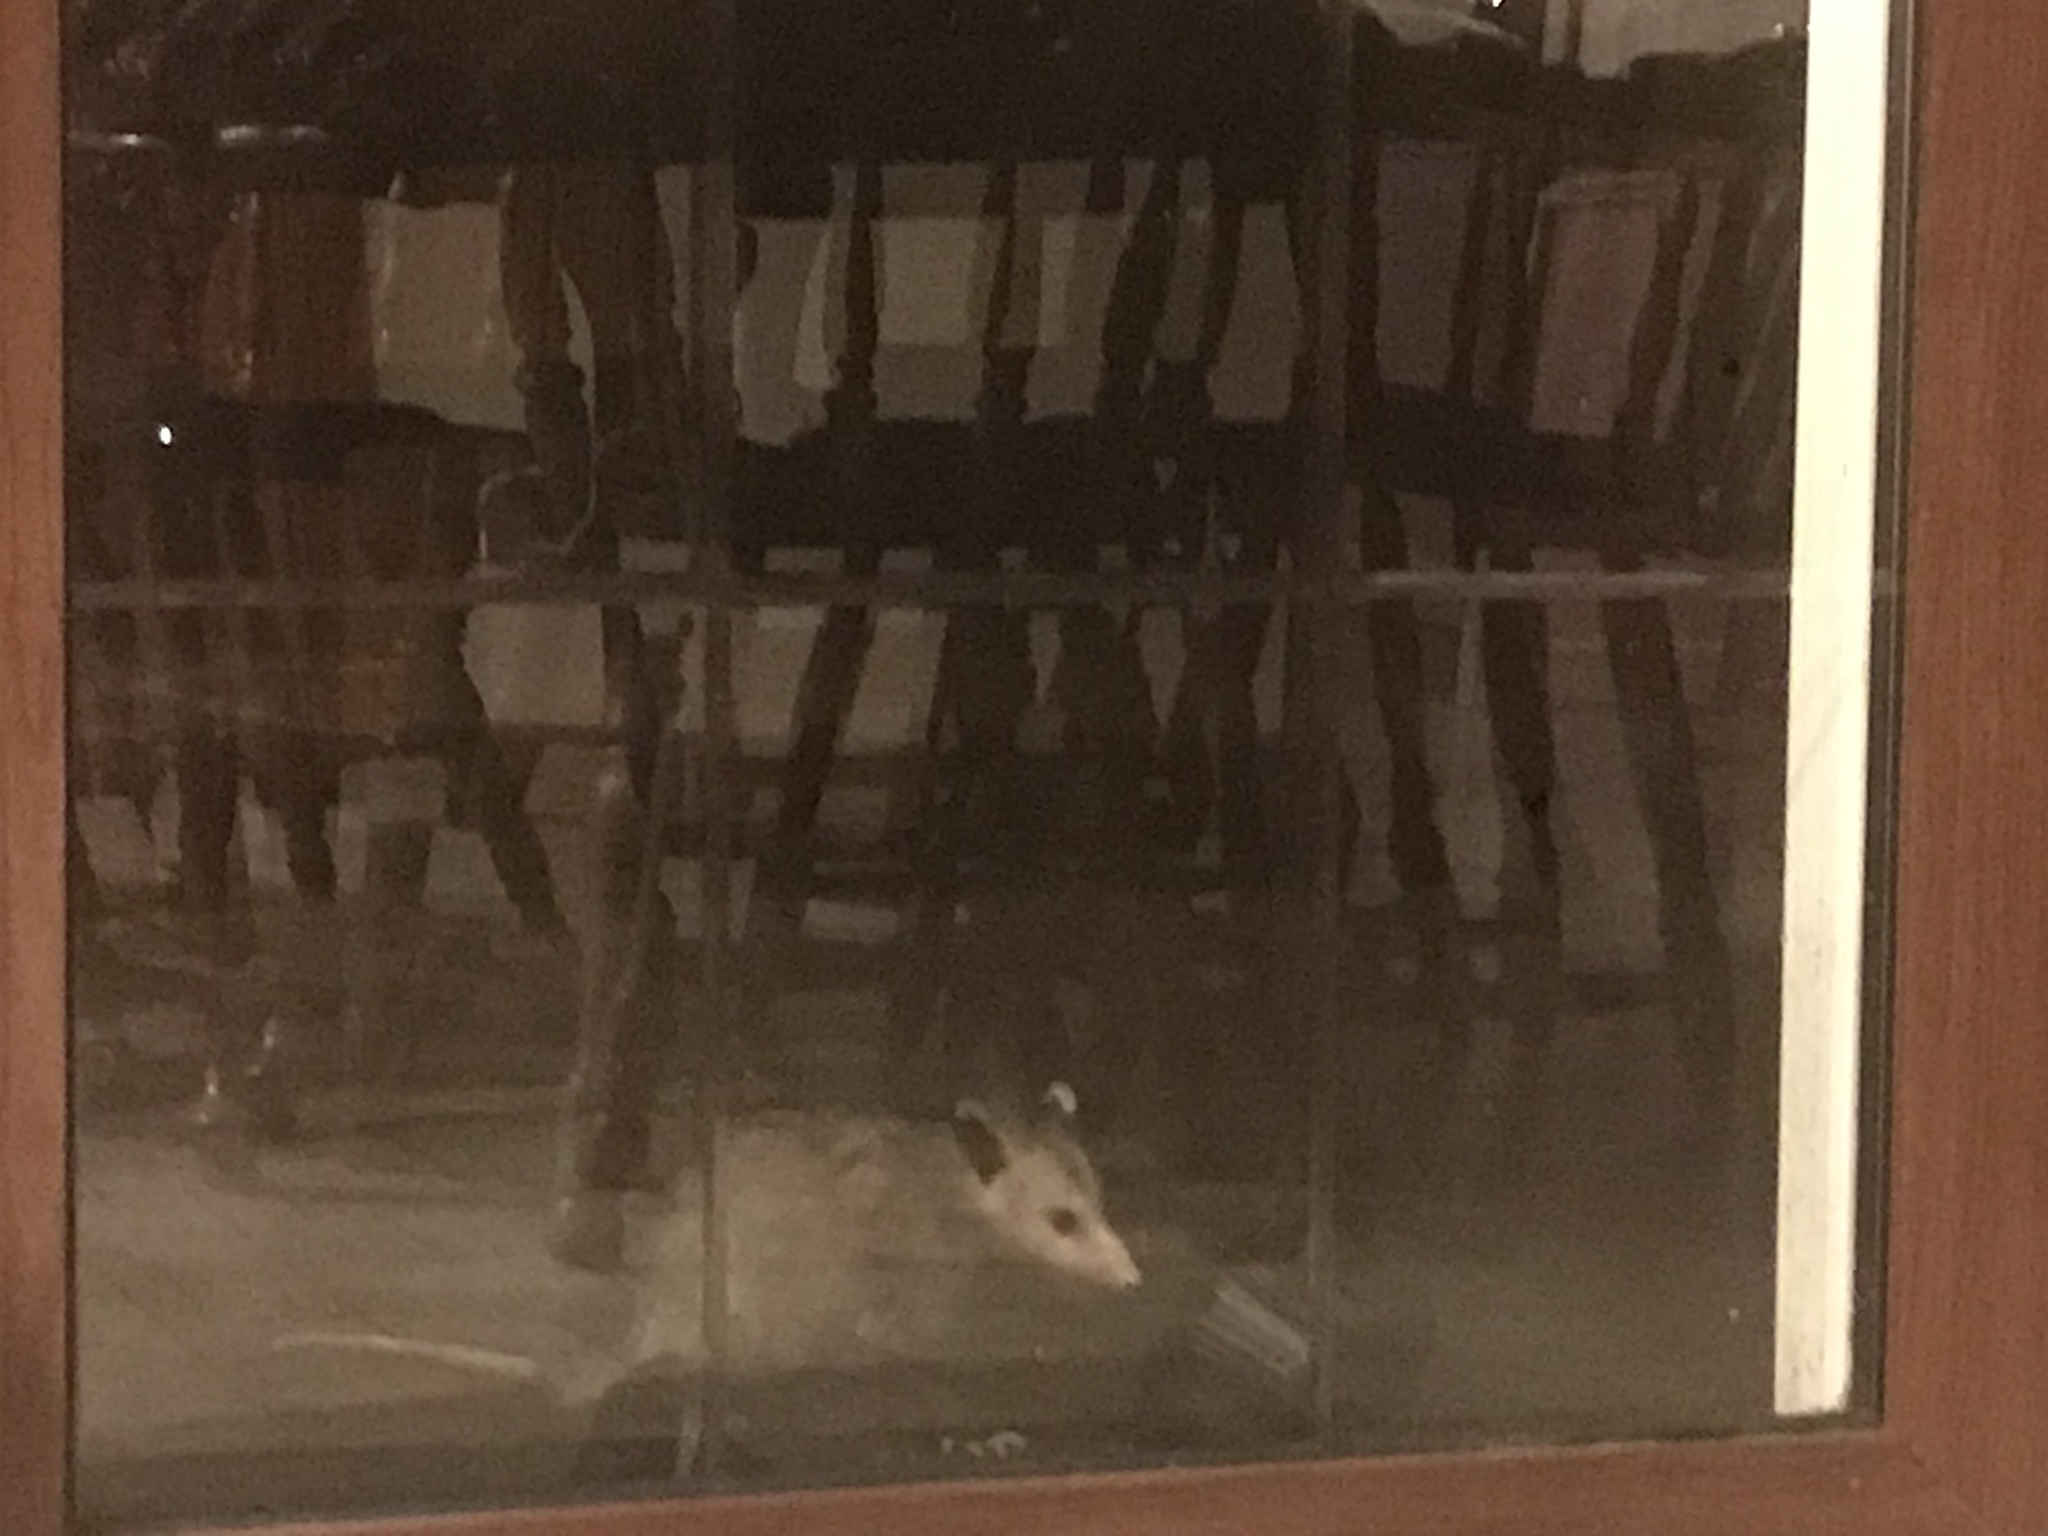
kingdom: Animalia
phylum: Chordata
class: Mammalia
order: Didelphimorphia
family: Didelphidae
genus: Didelphis
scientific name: Didelphis virginiana
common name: Virginia opossum
